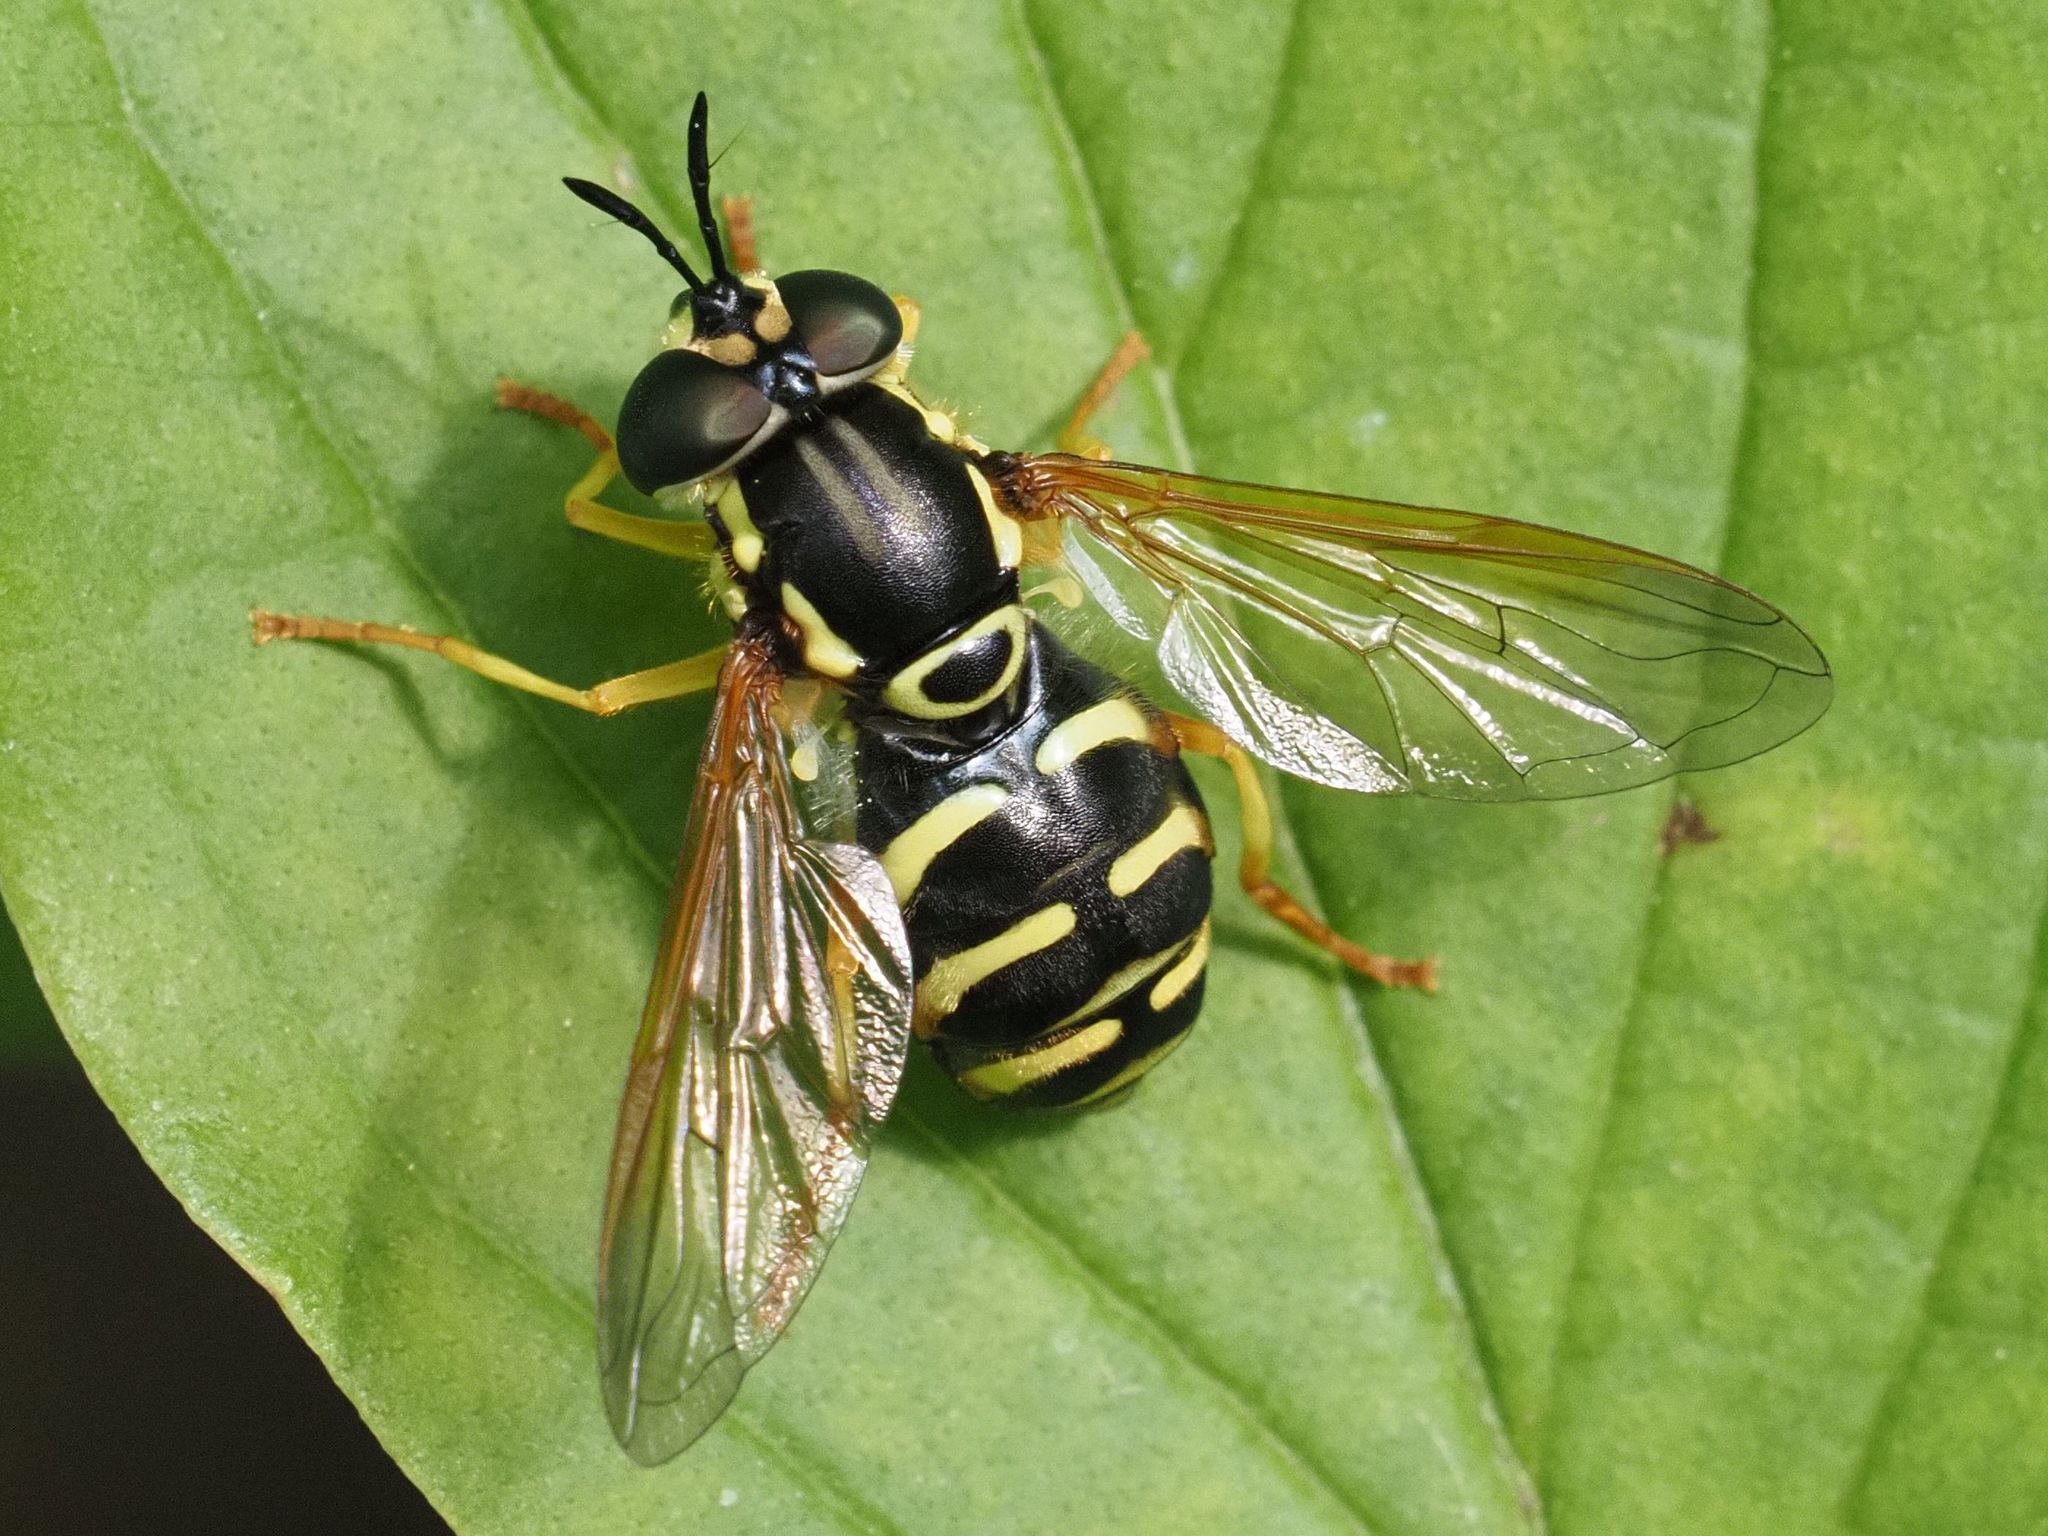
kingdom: Animalia
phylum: Arthropoda
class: Insecta
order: Diptera
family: Syrphidae
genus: Chrysotoxum
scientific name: Chrysotoxum elegans
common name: Zipperback
